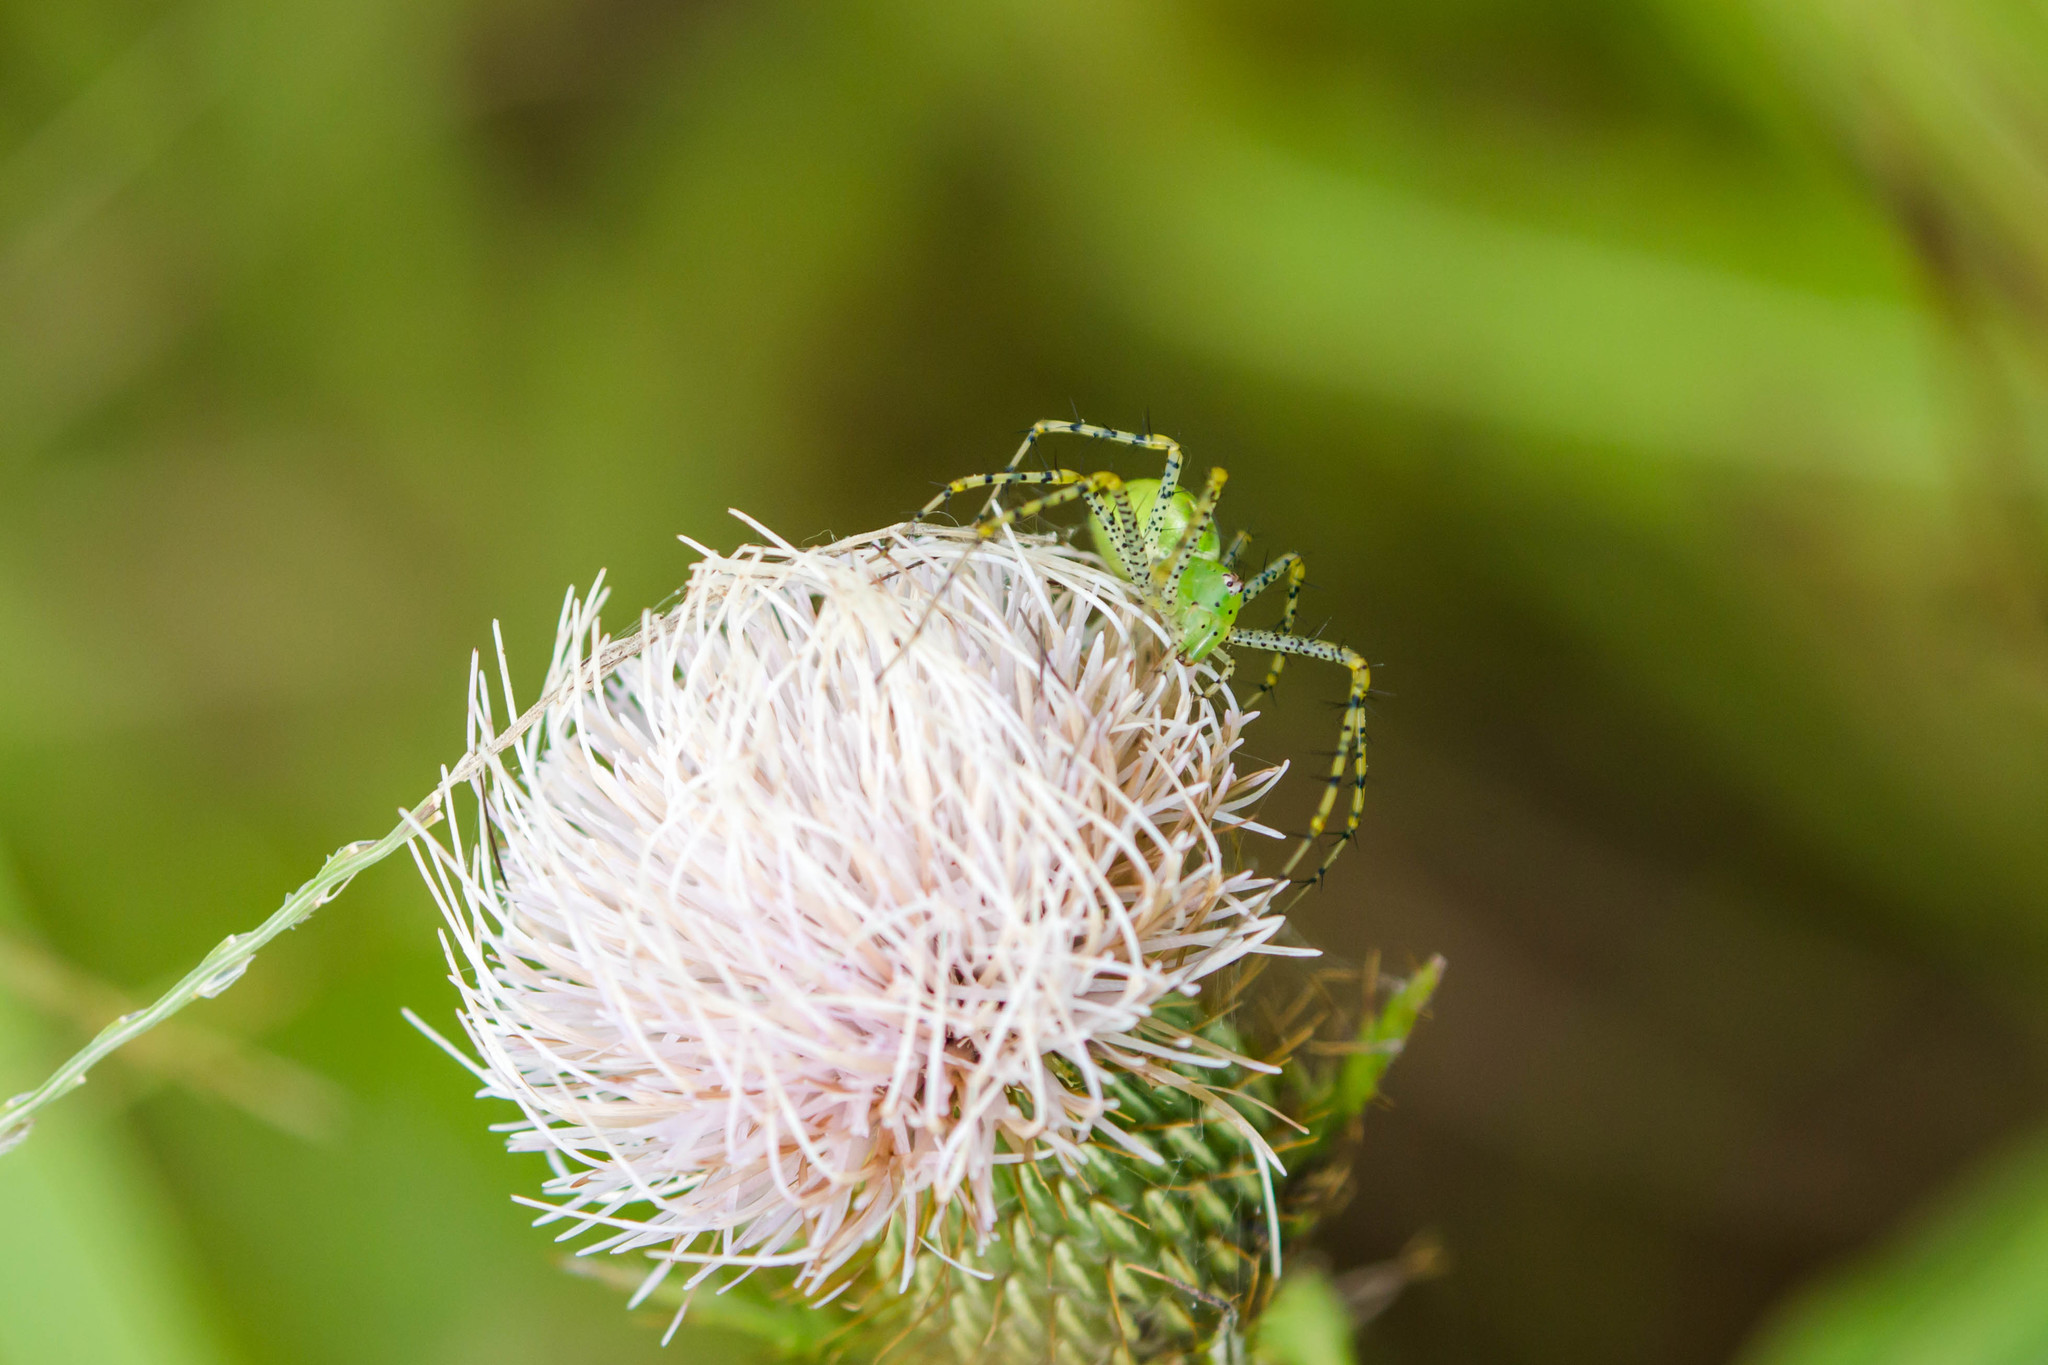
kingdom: Animalia
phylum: Arthropoda
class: Arachnida
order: Araneae
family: Oxyopidae
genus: Peucetia
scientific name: Peucetia viridans
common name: Lynx spiders
